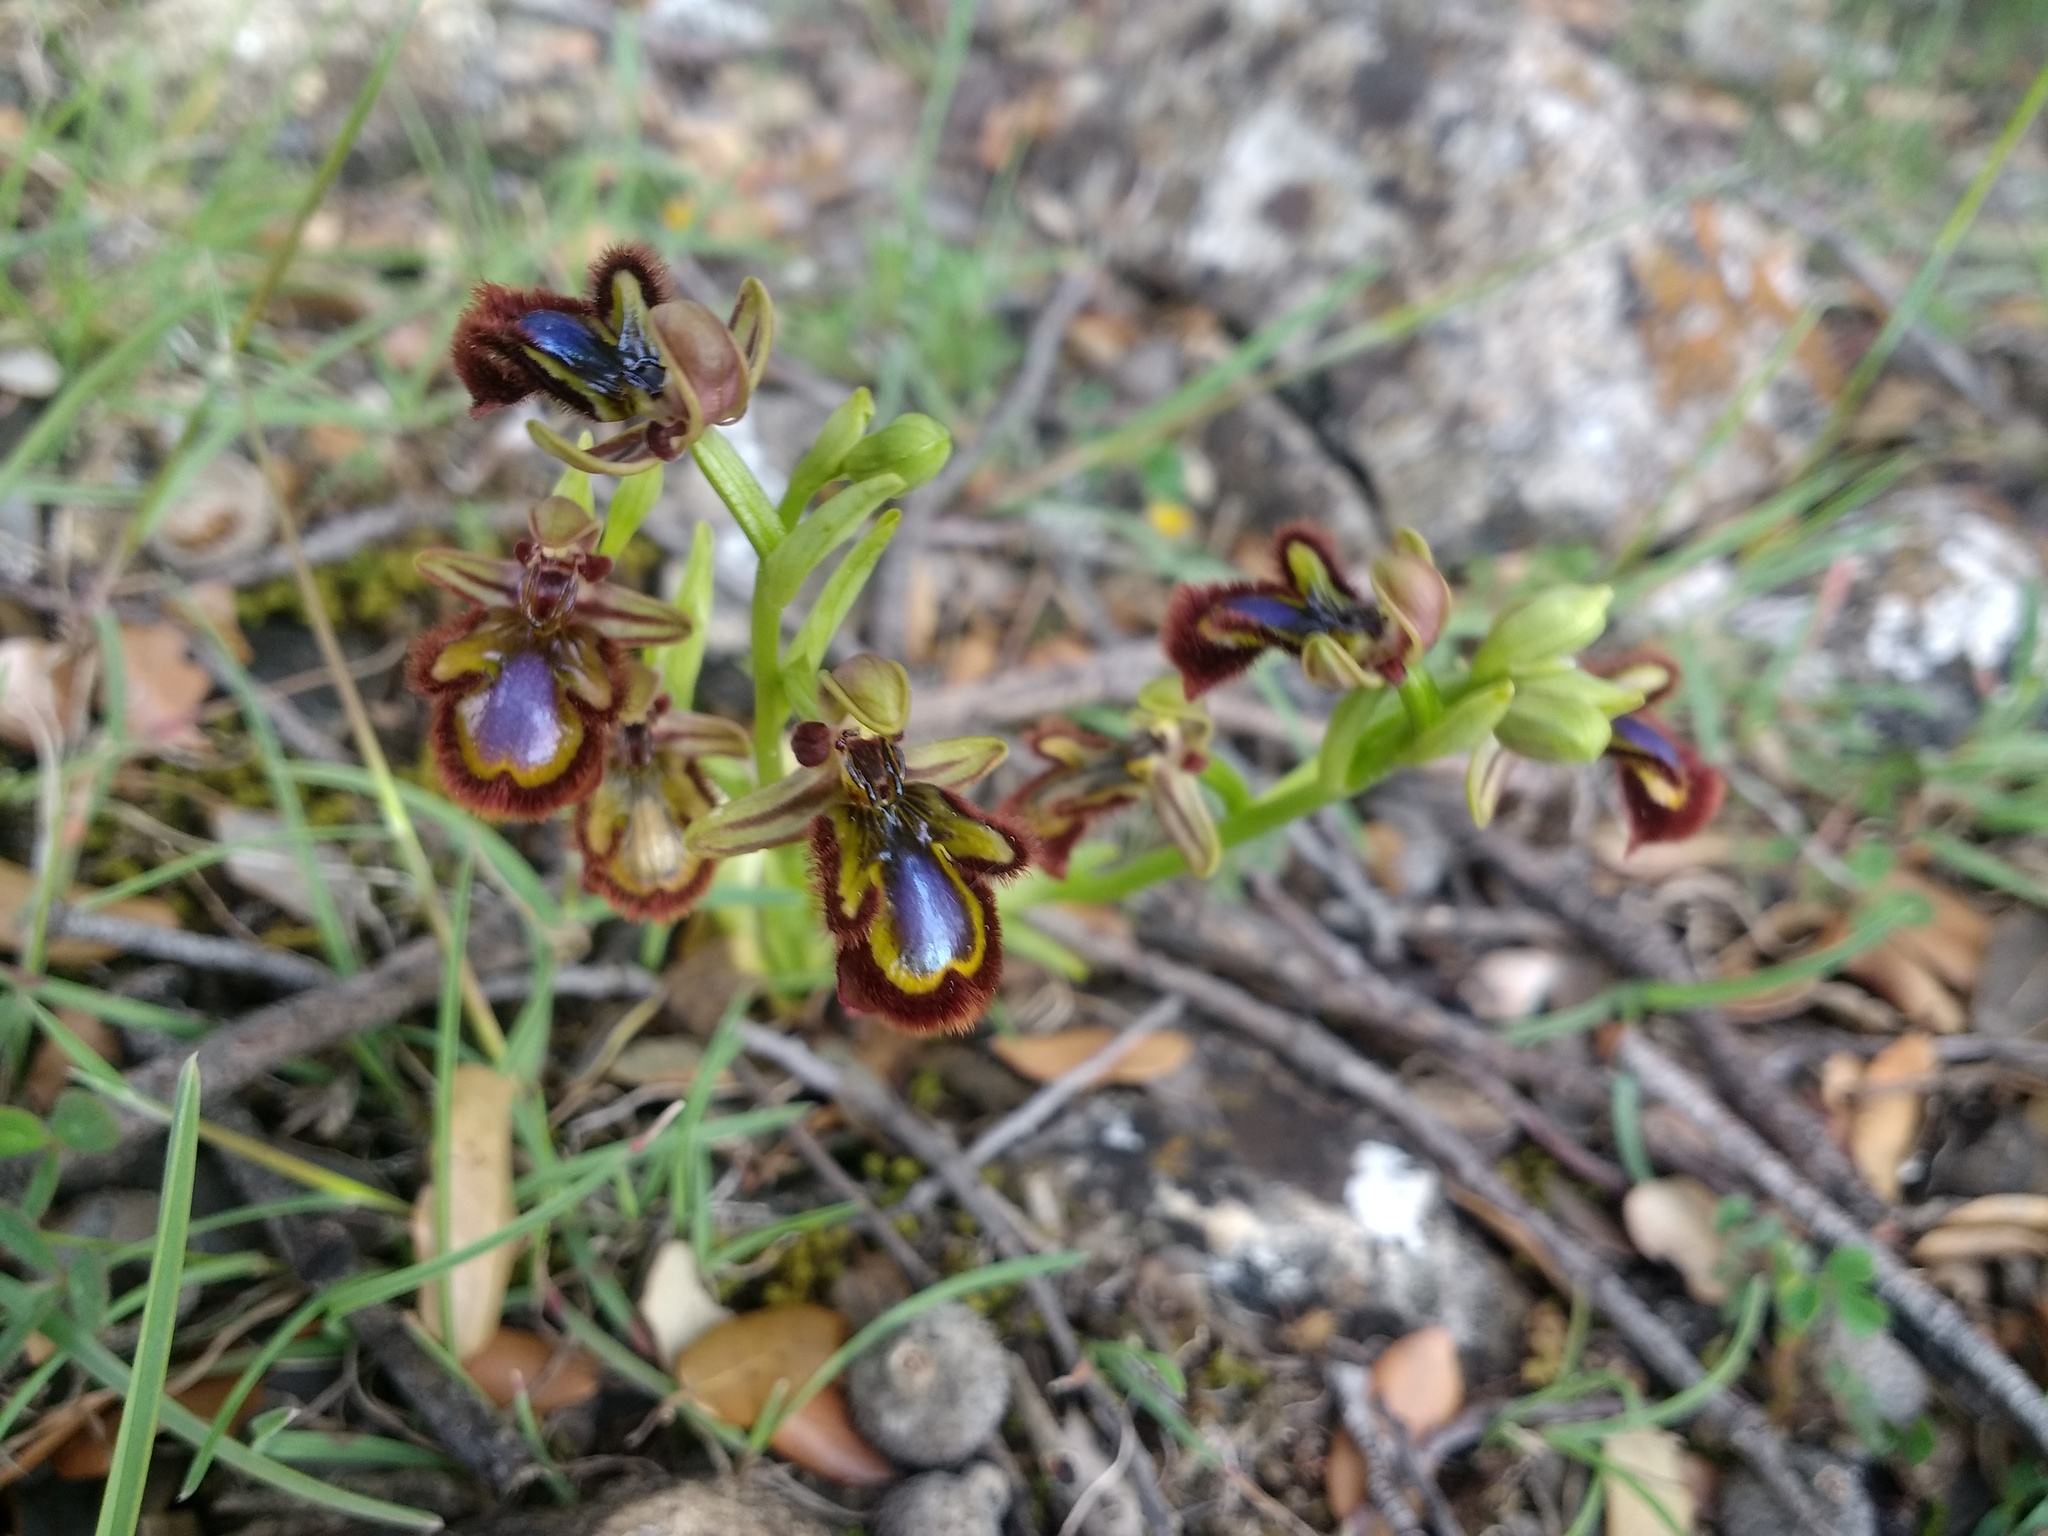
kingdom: Plantae
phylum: Tracheophyta
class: Liliopsida
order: Asparagales
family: Orchidaceae
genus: Ophrys
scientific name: Ophrys speculum
